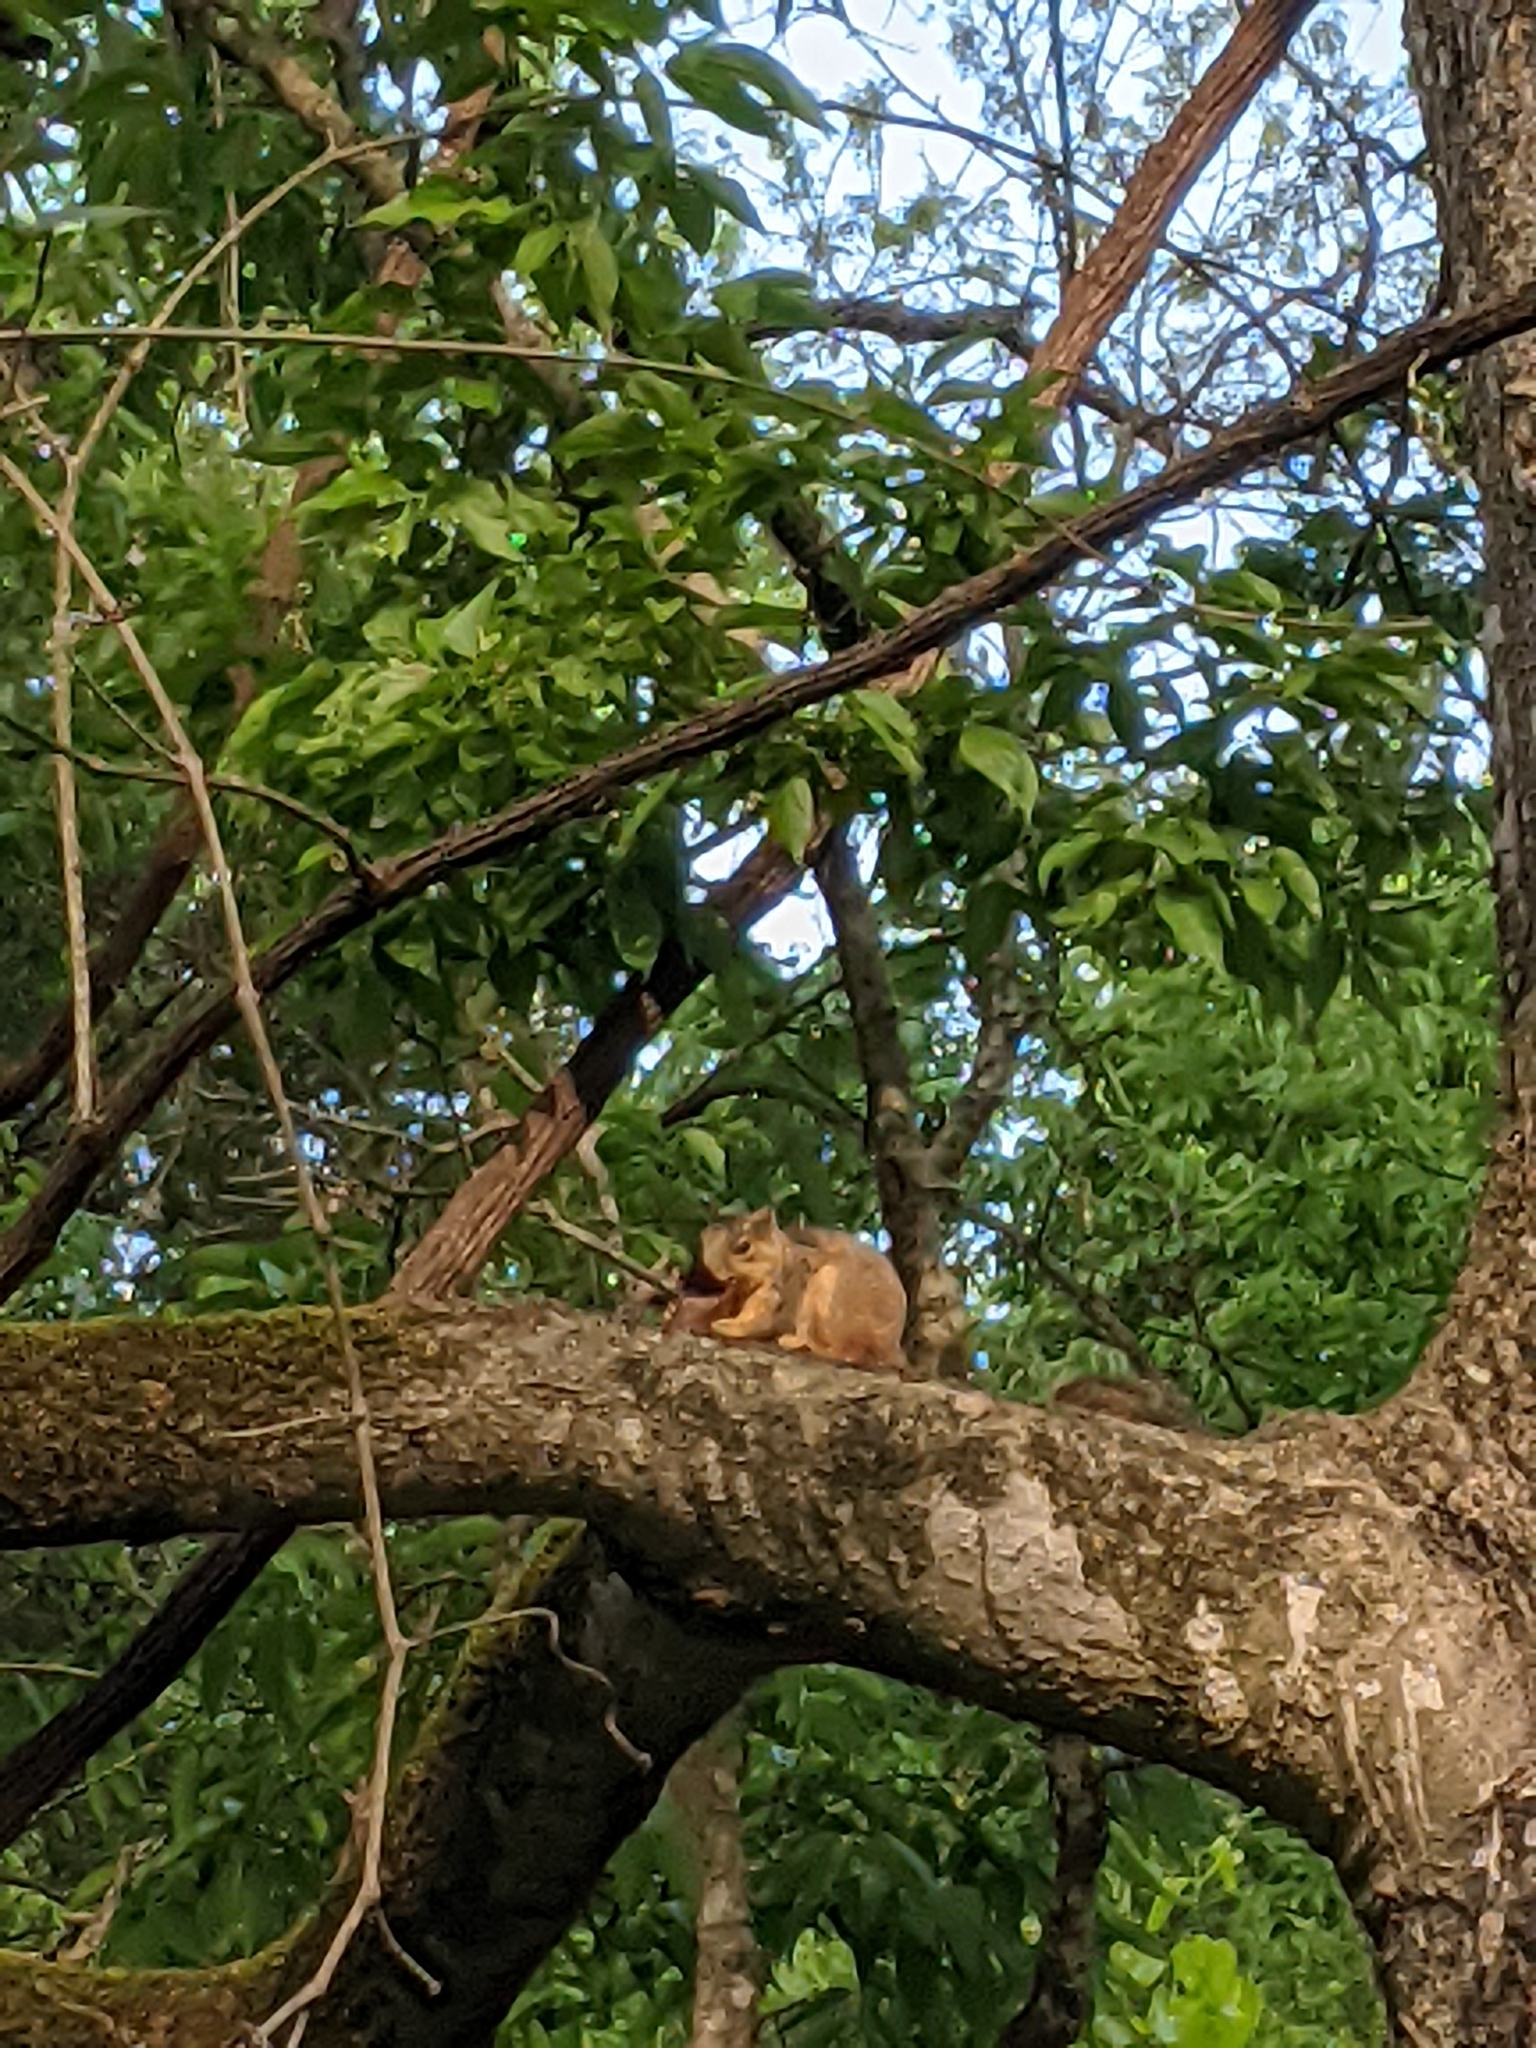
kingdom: Animalia
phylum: Chordata
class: Mammalia
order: Rodentia
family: Sciuridae
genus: Sciurus
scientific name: Sciurus niger
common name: Fox squirrel
